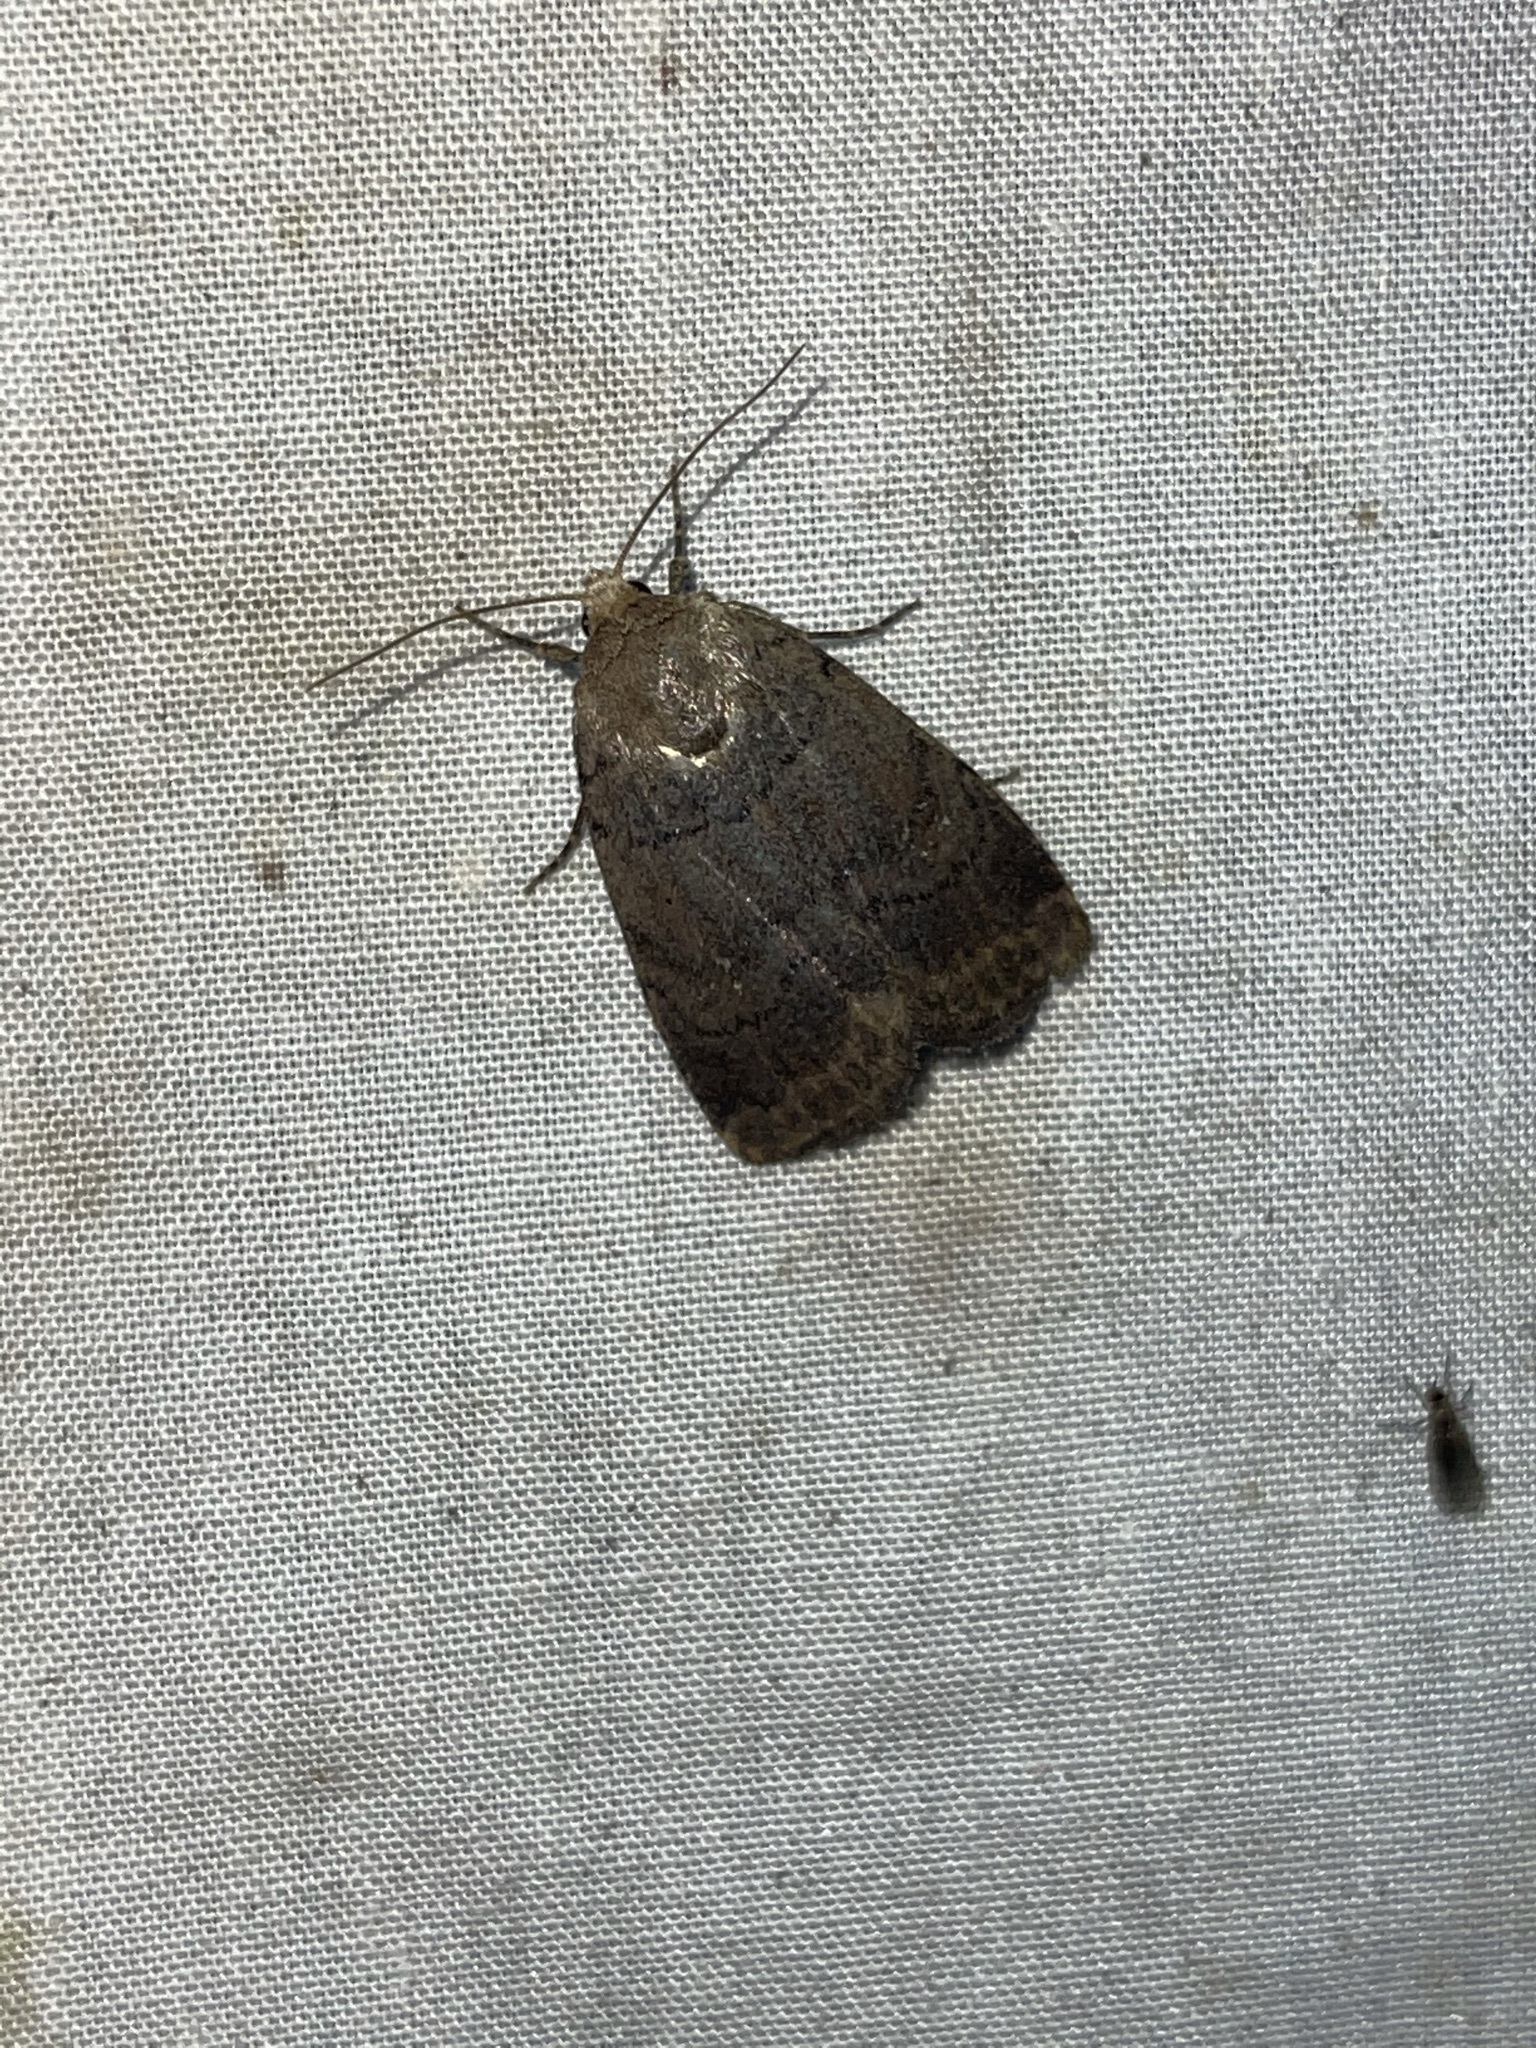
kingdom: Animalia
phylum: Arthropoda
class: Insecta
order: Lepidoptera
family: Noctuidae
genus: Athetis
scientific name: Athetis tarda
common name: Slowpoke moth
